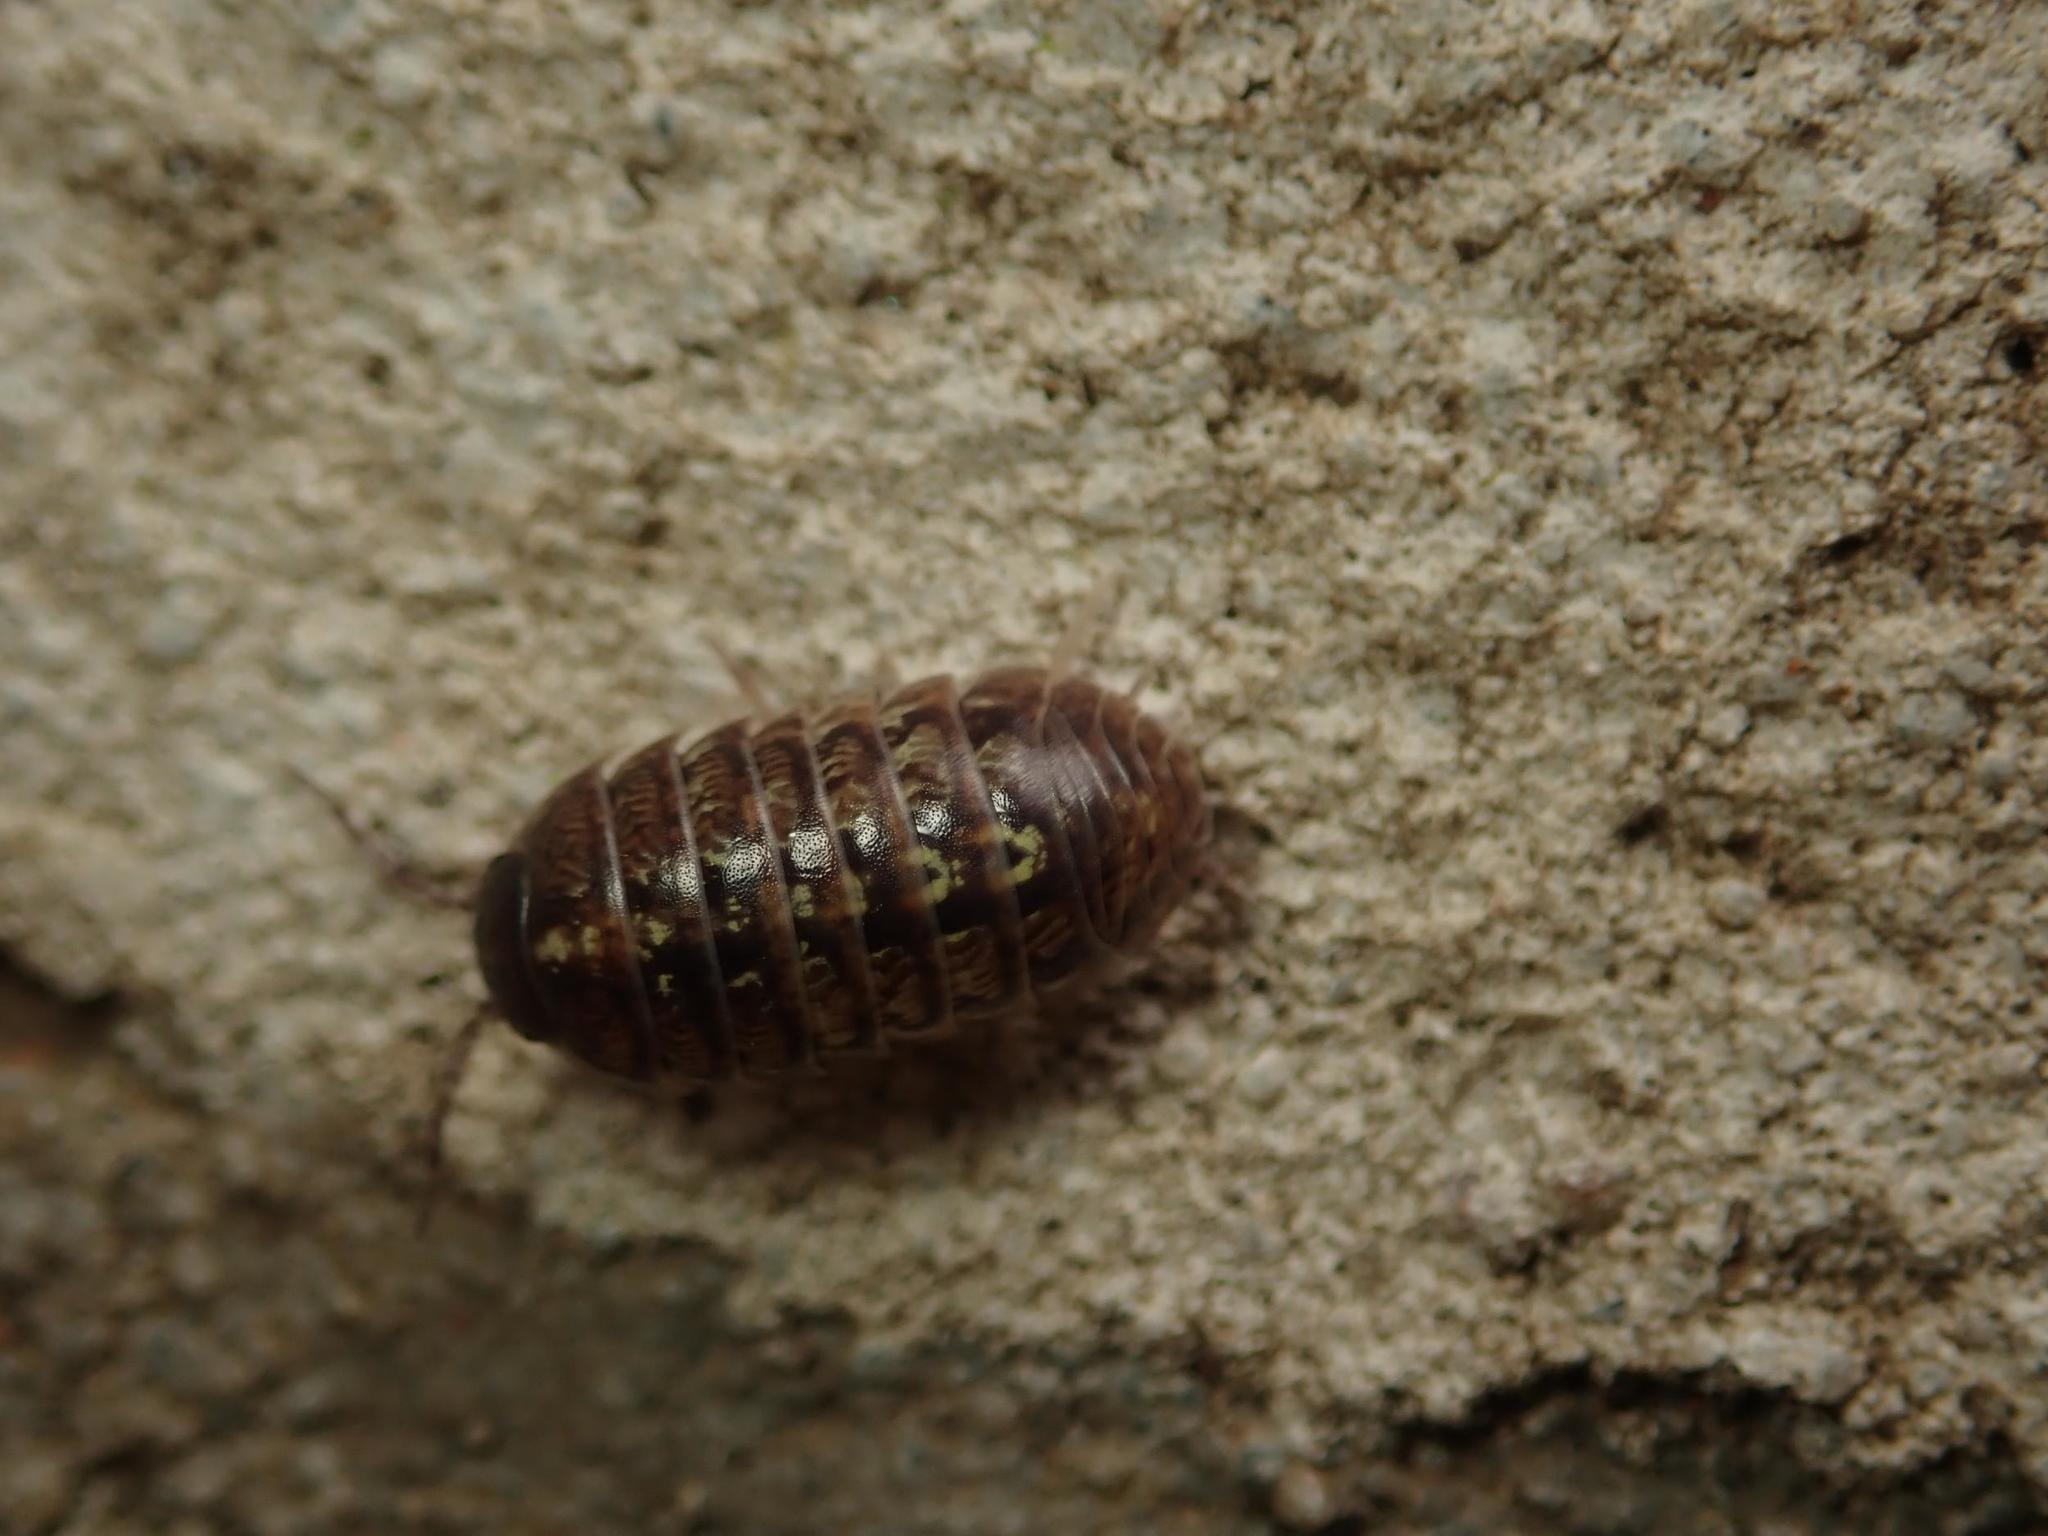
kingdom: Animalia
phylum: Arthropoda
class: Malacostraca
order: Isopoda
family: Armadillidiidae
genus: Armadillidium
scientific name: Armadillidium vulgare
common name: Common pill woodlouse
